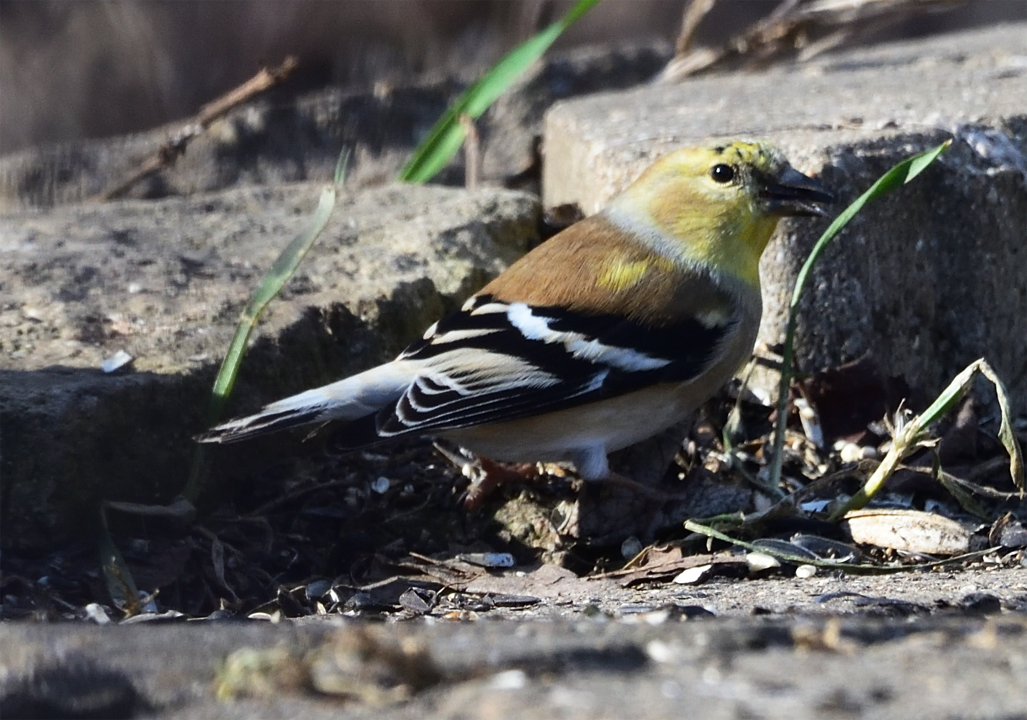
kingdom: Animalia
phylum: Chordata
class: Aves
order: Passeriformes
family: Fringillidae
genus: Spinus
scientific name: Spinus tristis
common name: American goldfinch
